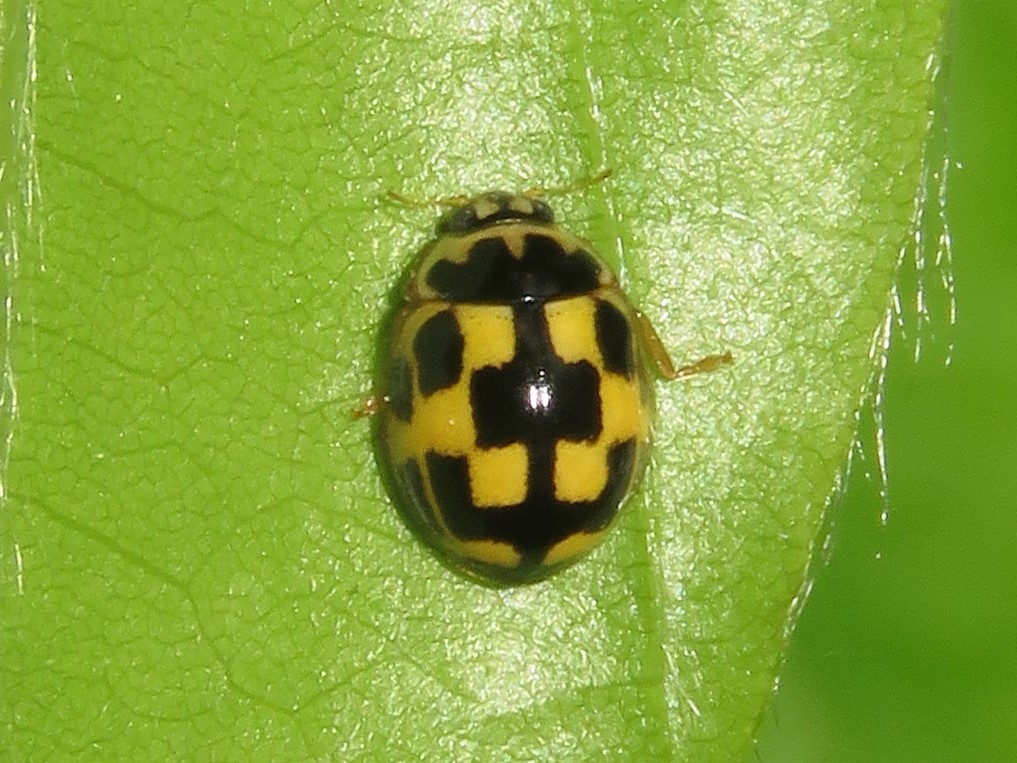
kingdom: Animalia
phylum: Arthropoda
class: Insecta
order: Coleoptera
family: Coccinellidae
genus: Propylaea
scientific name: Propylaea quatuordecimpunctata
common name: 14-spotted ladybird beetle
